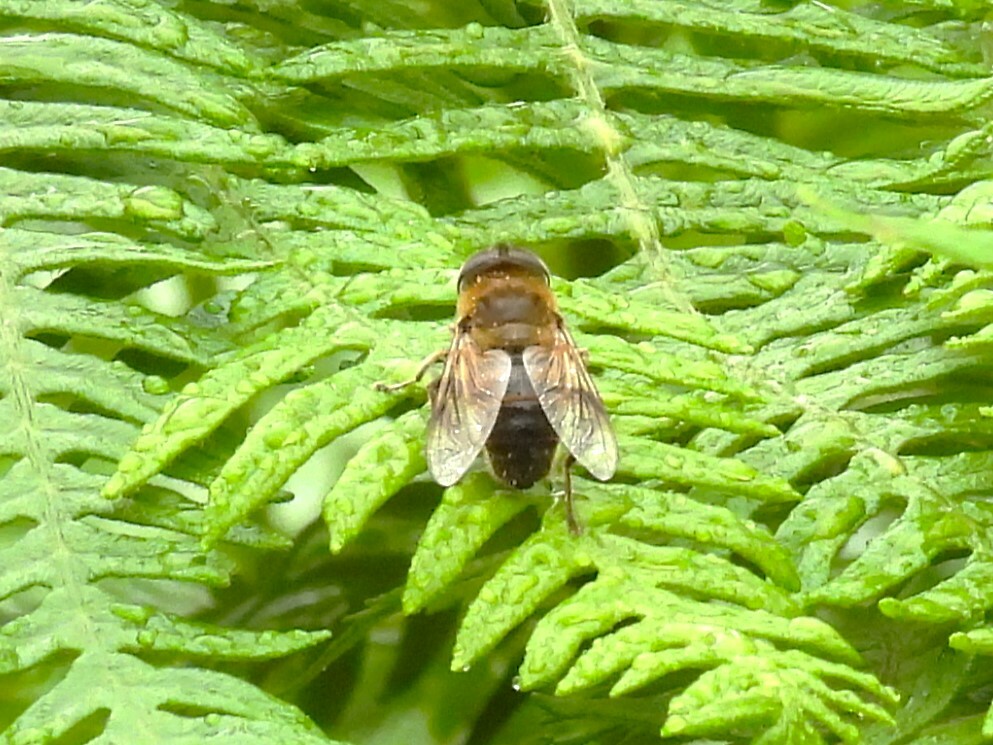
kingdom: Animalia
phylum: Arthropoda
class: Insecta
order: Diptera
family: Syrphidae
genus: Eristalis
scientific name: Eristalis tenax
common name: Drone fly
